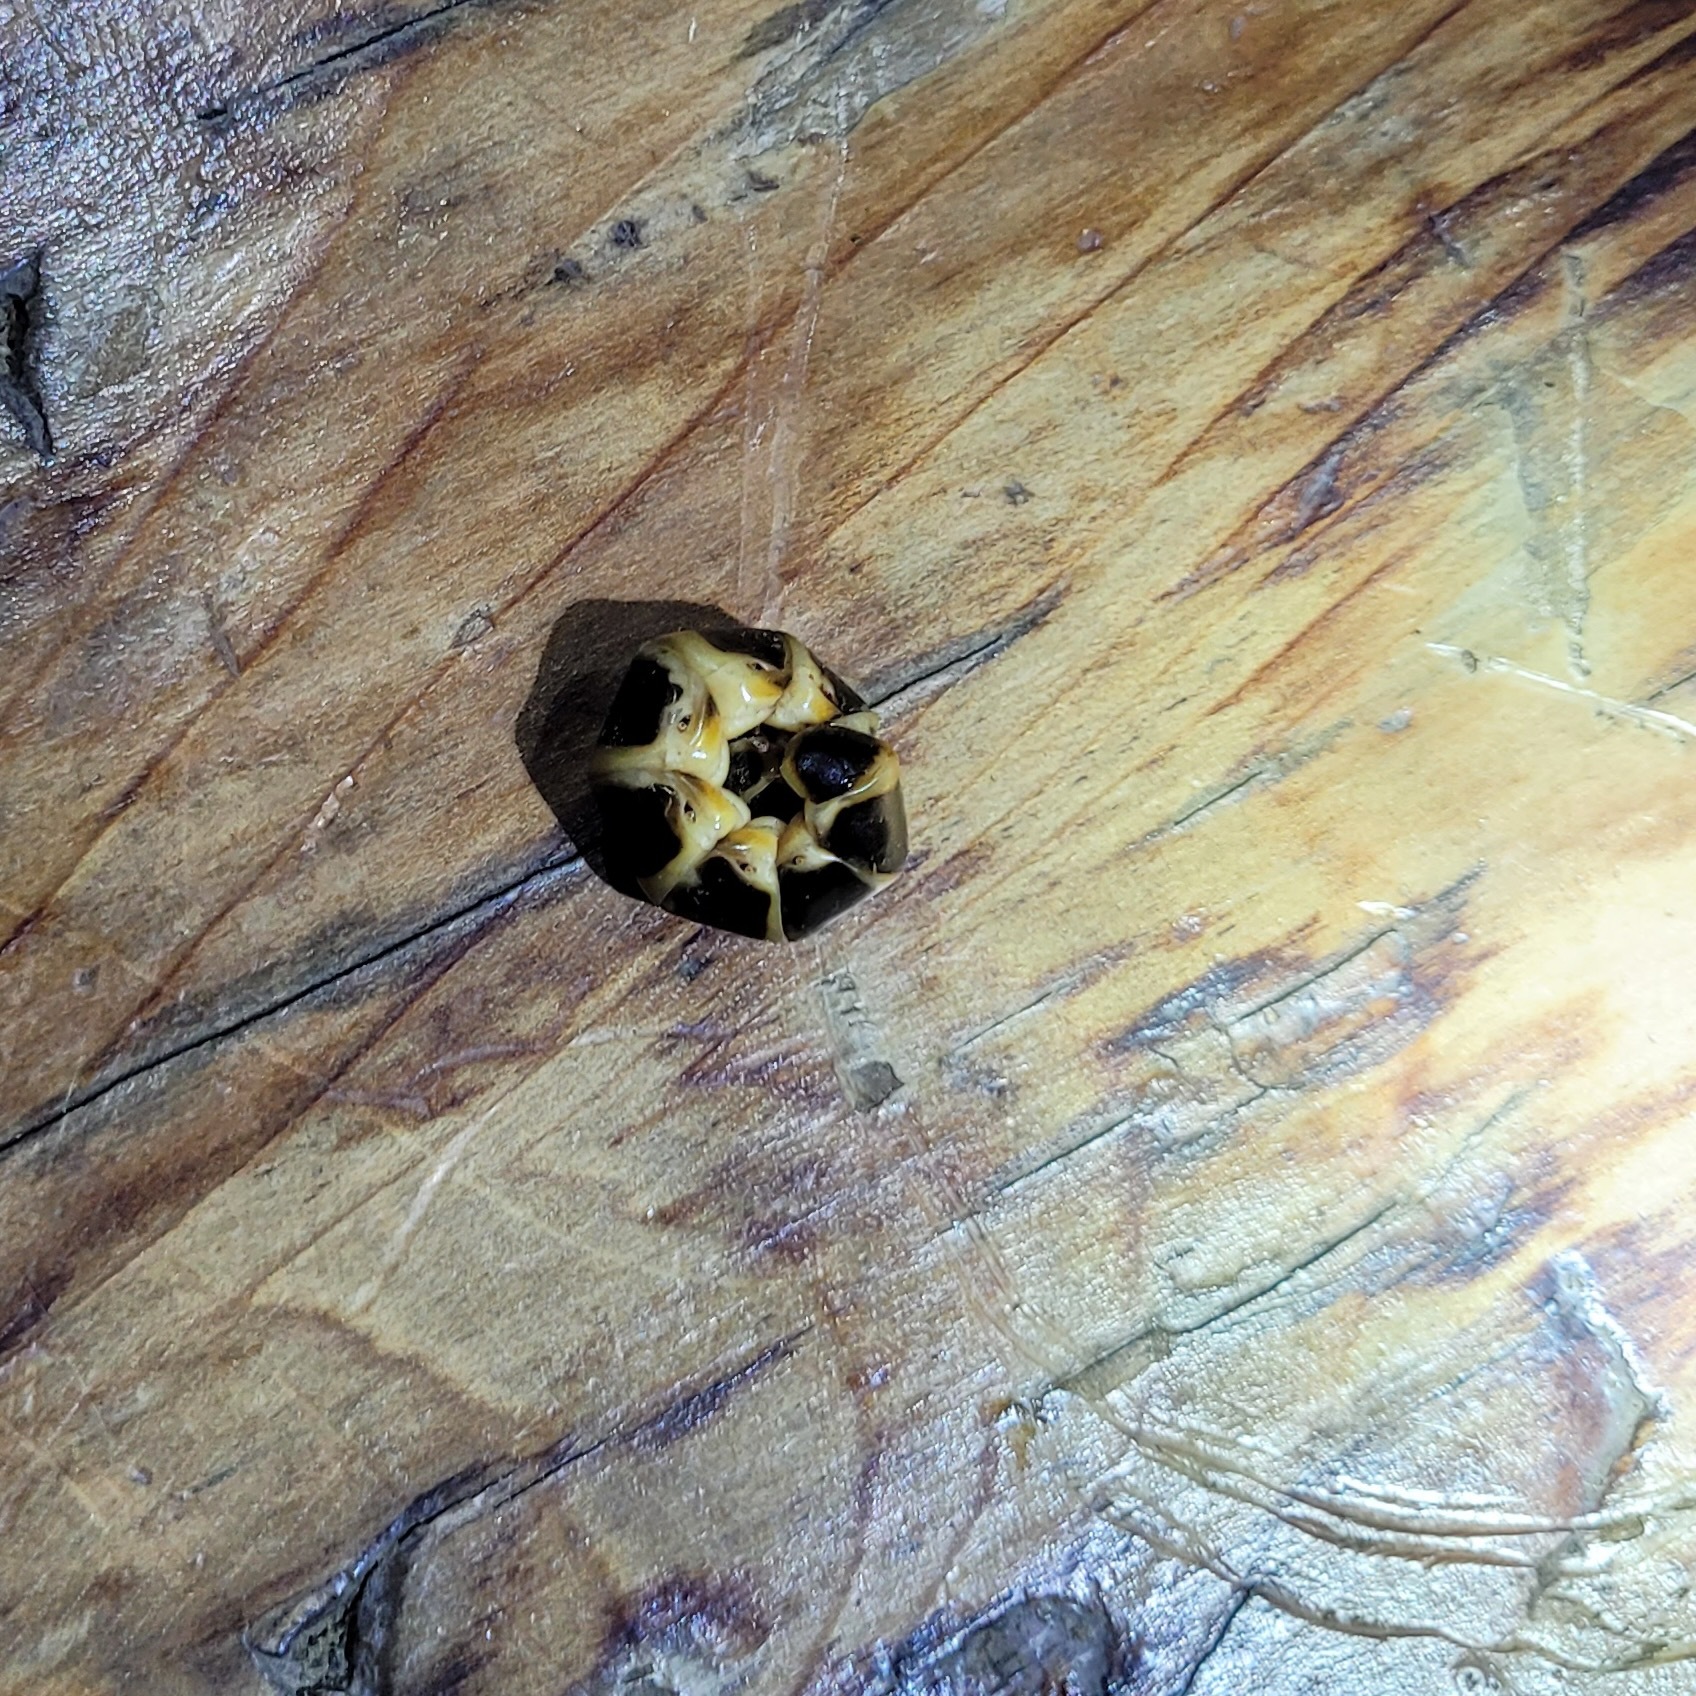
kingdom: Animalia
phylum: Arthropoda
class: Insecta
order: Coleoptera
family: Phengodidae
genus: Zarhipis
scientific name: Zarhipis integripennis
